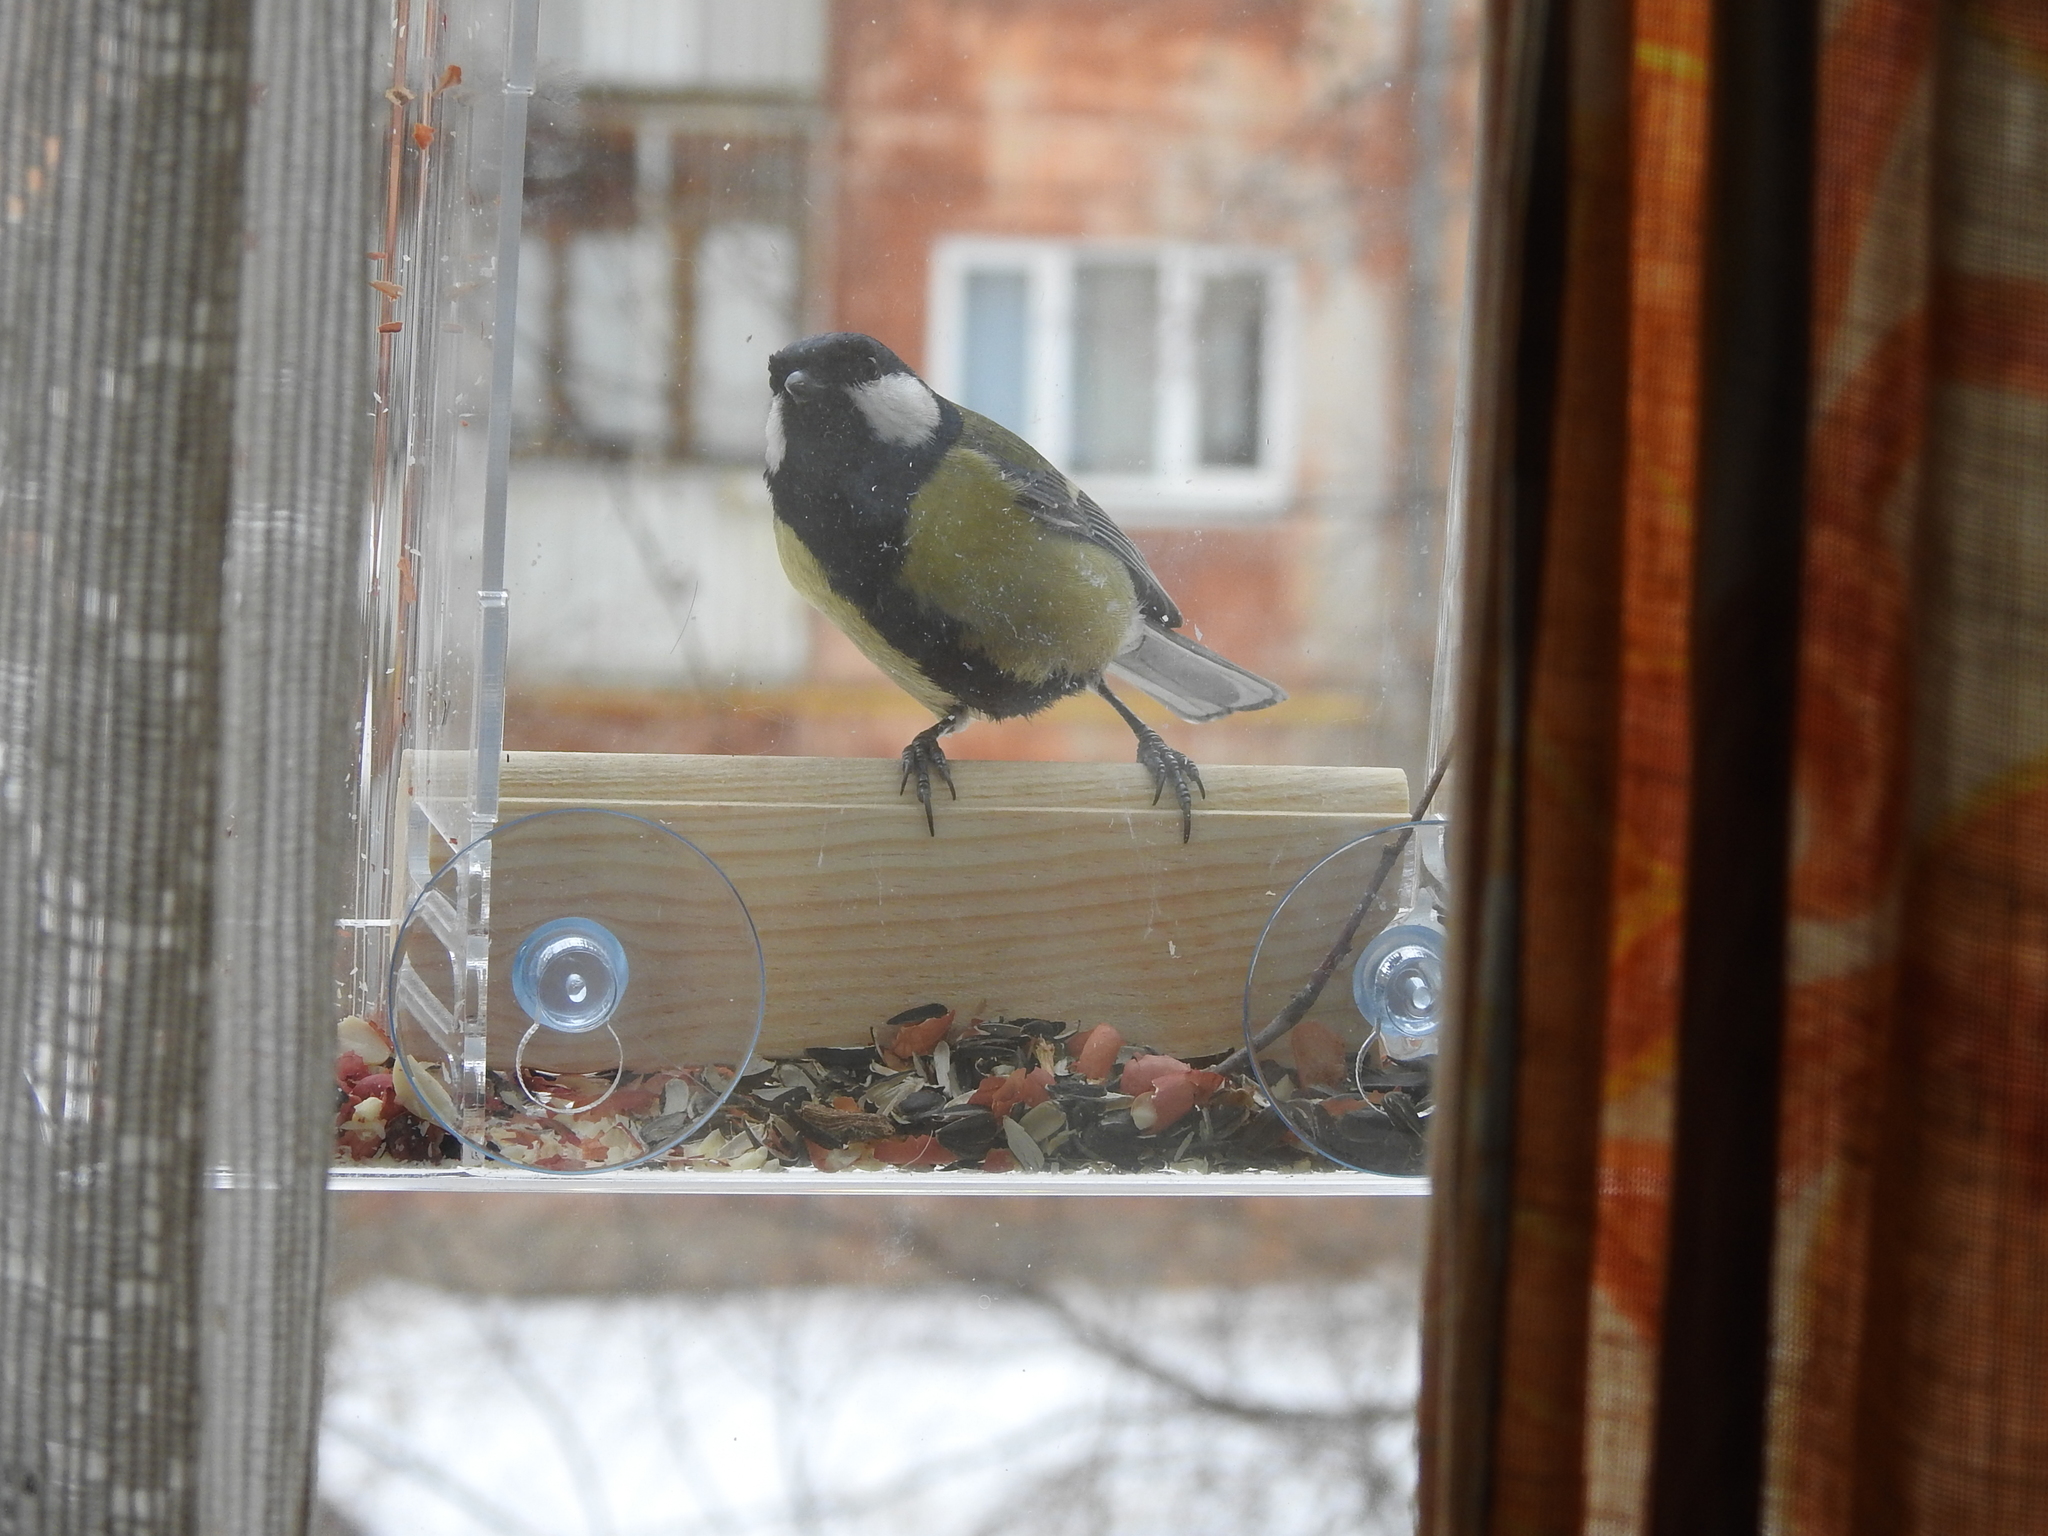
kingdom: Animalia
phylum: Chordata
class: Aves
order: Passeriformes
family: Paridae
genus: Parus
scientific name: Parus major
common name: Great tit
